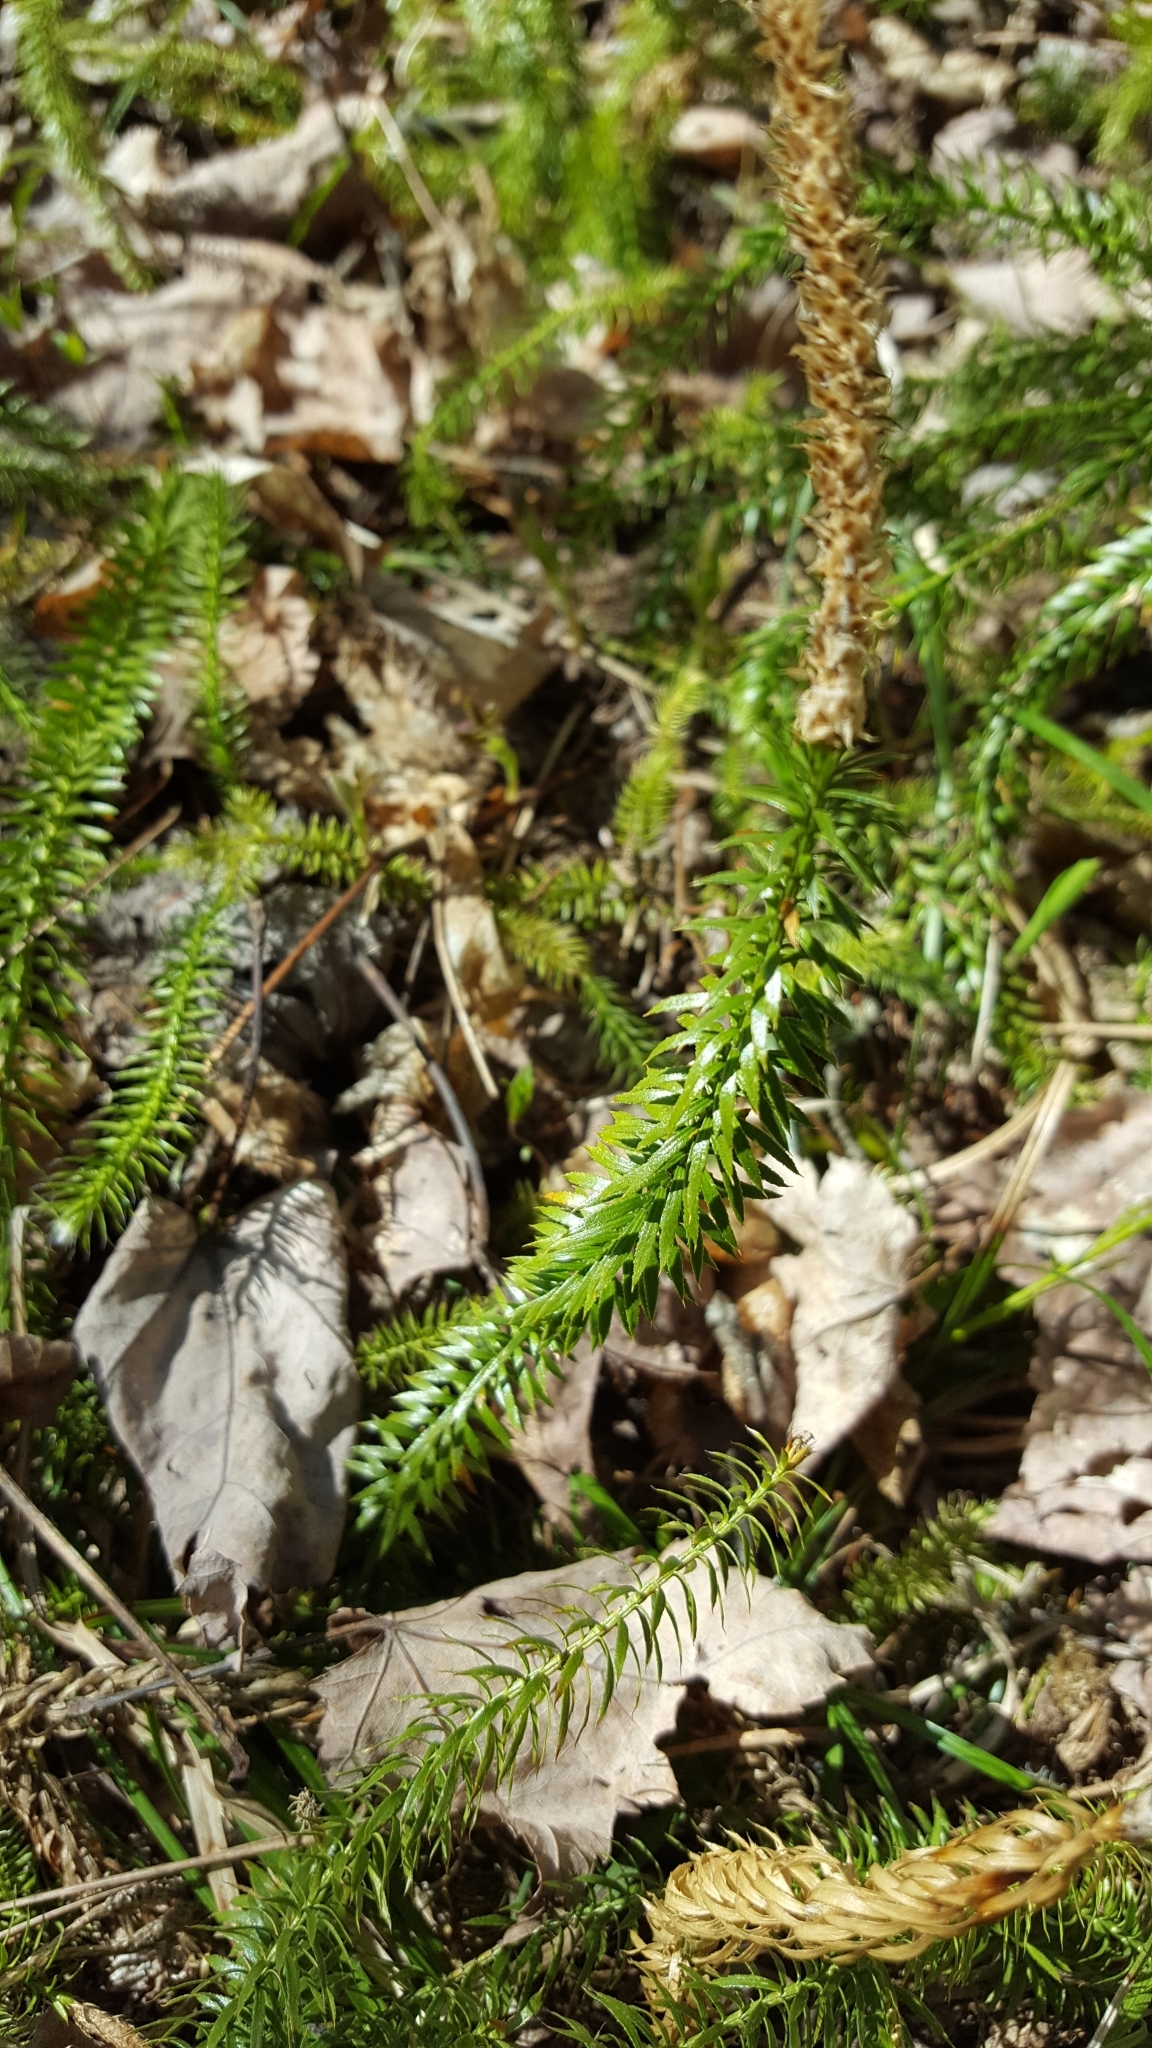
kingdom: Plantae
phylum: Tracheophyta
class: Lycopodiopsida
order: Lycopodiales
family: Lycopodiaceae
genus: Spinulum
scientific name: Spinulum annotinum
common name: Interrupted club-moss
